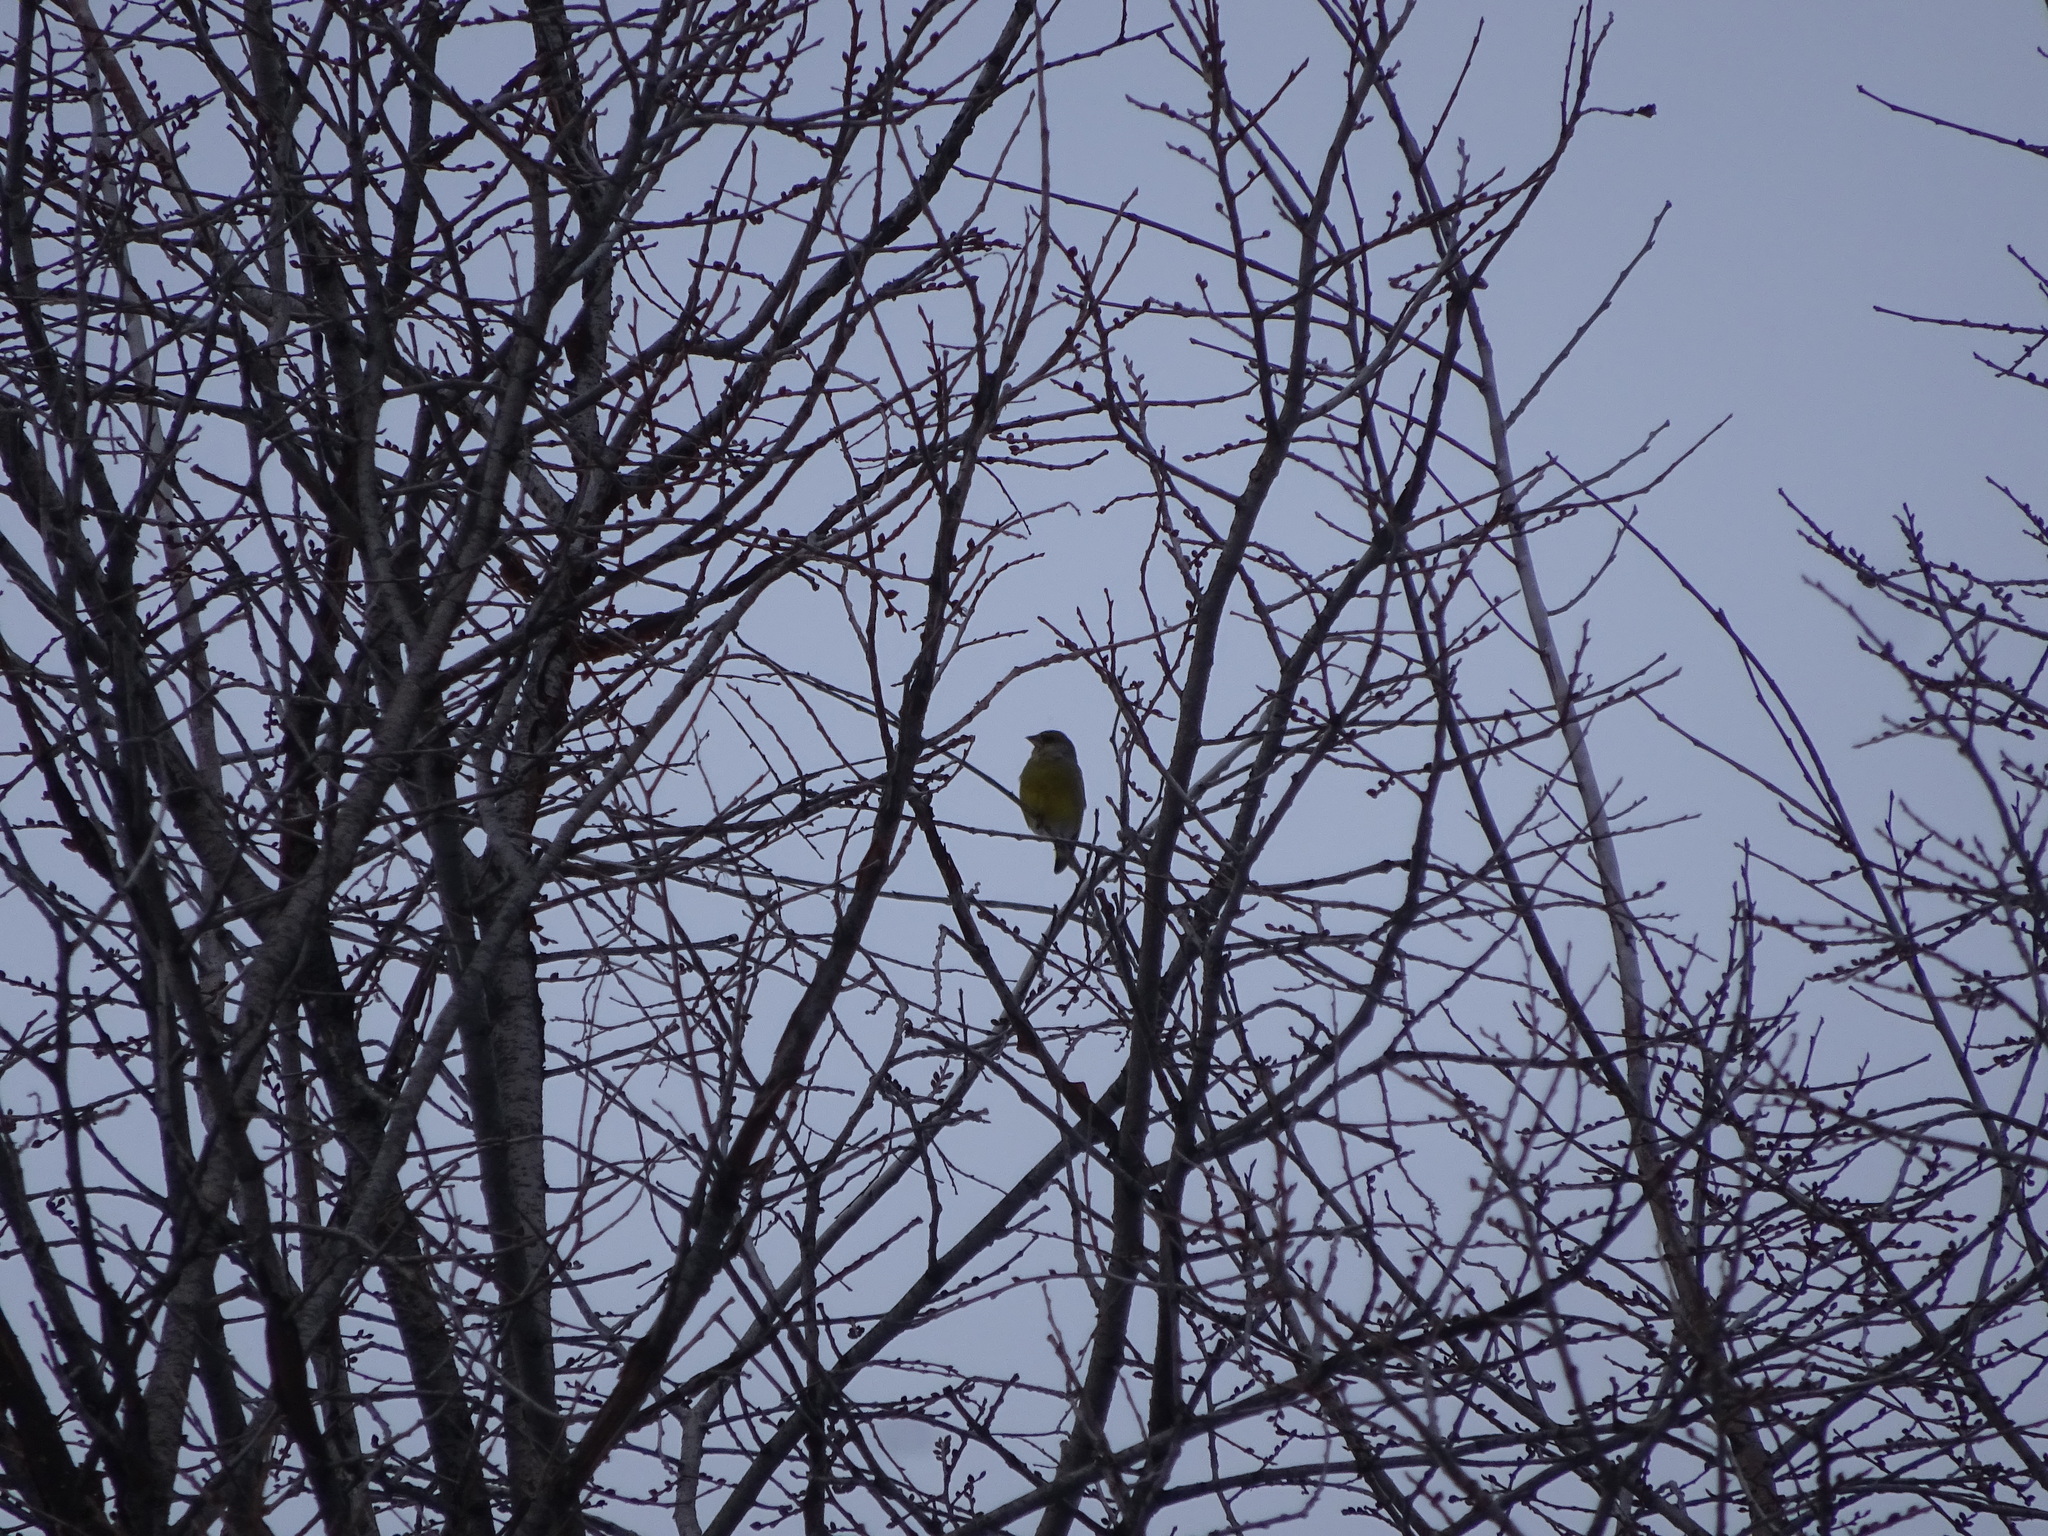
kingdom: Plantae
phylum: Tracheophyta
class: Liliopsida
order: Poales
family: Poaceae
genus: Chloris
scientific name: Chloris chloris
